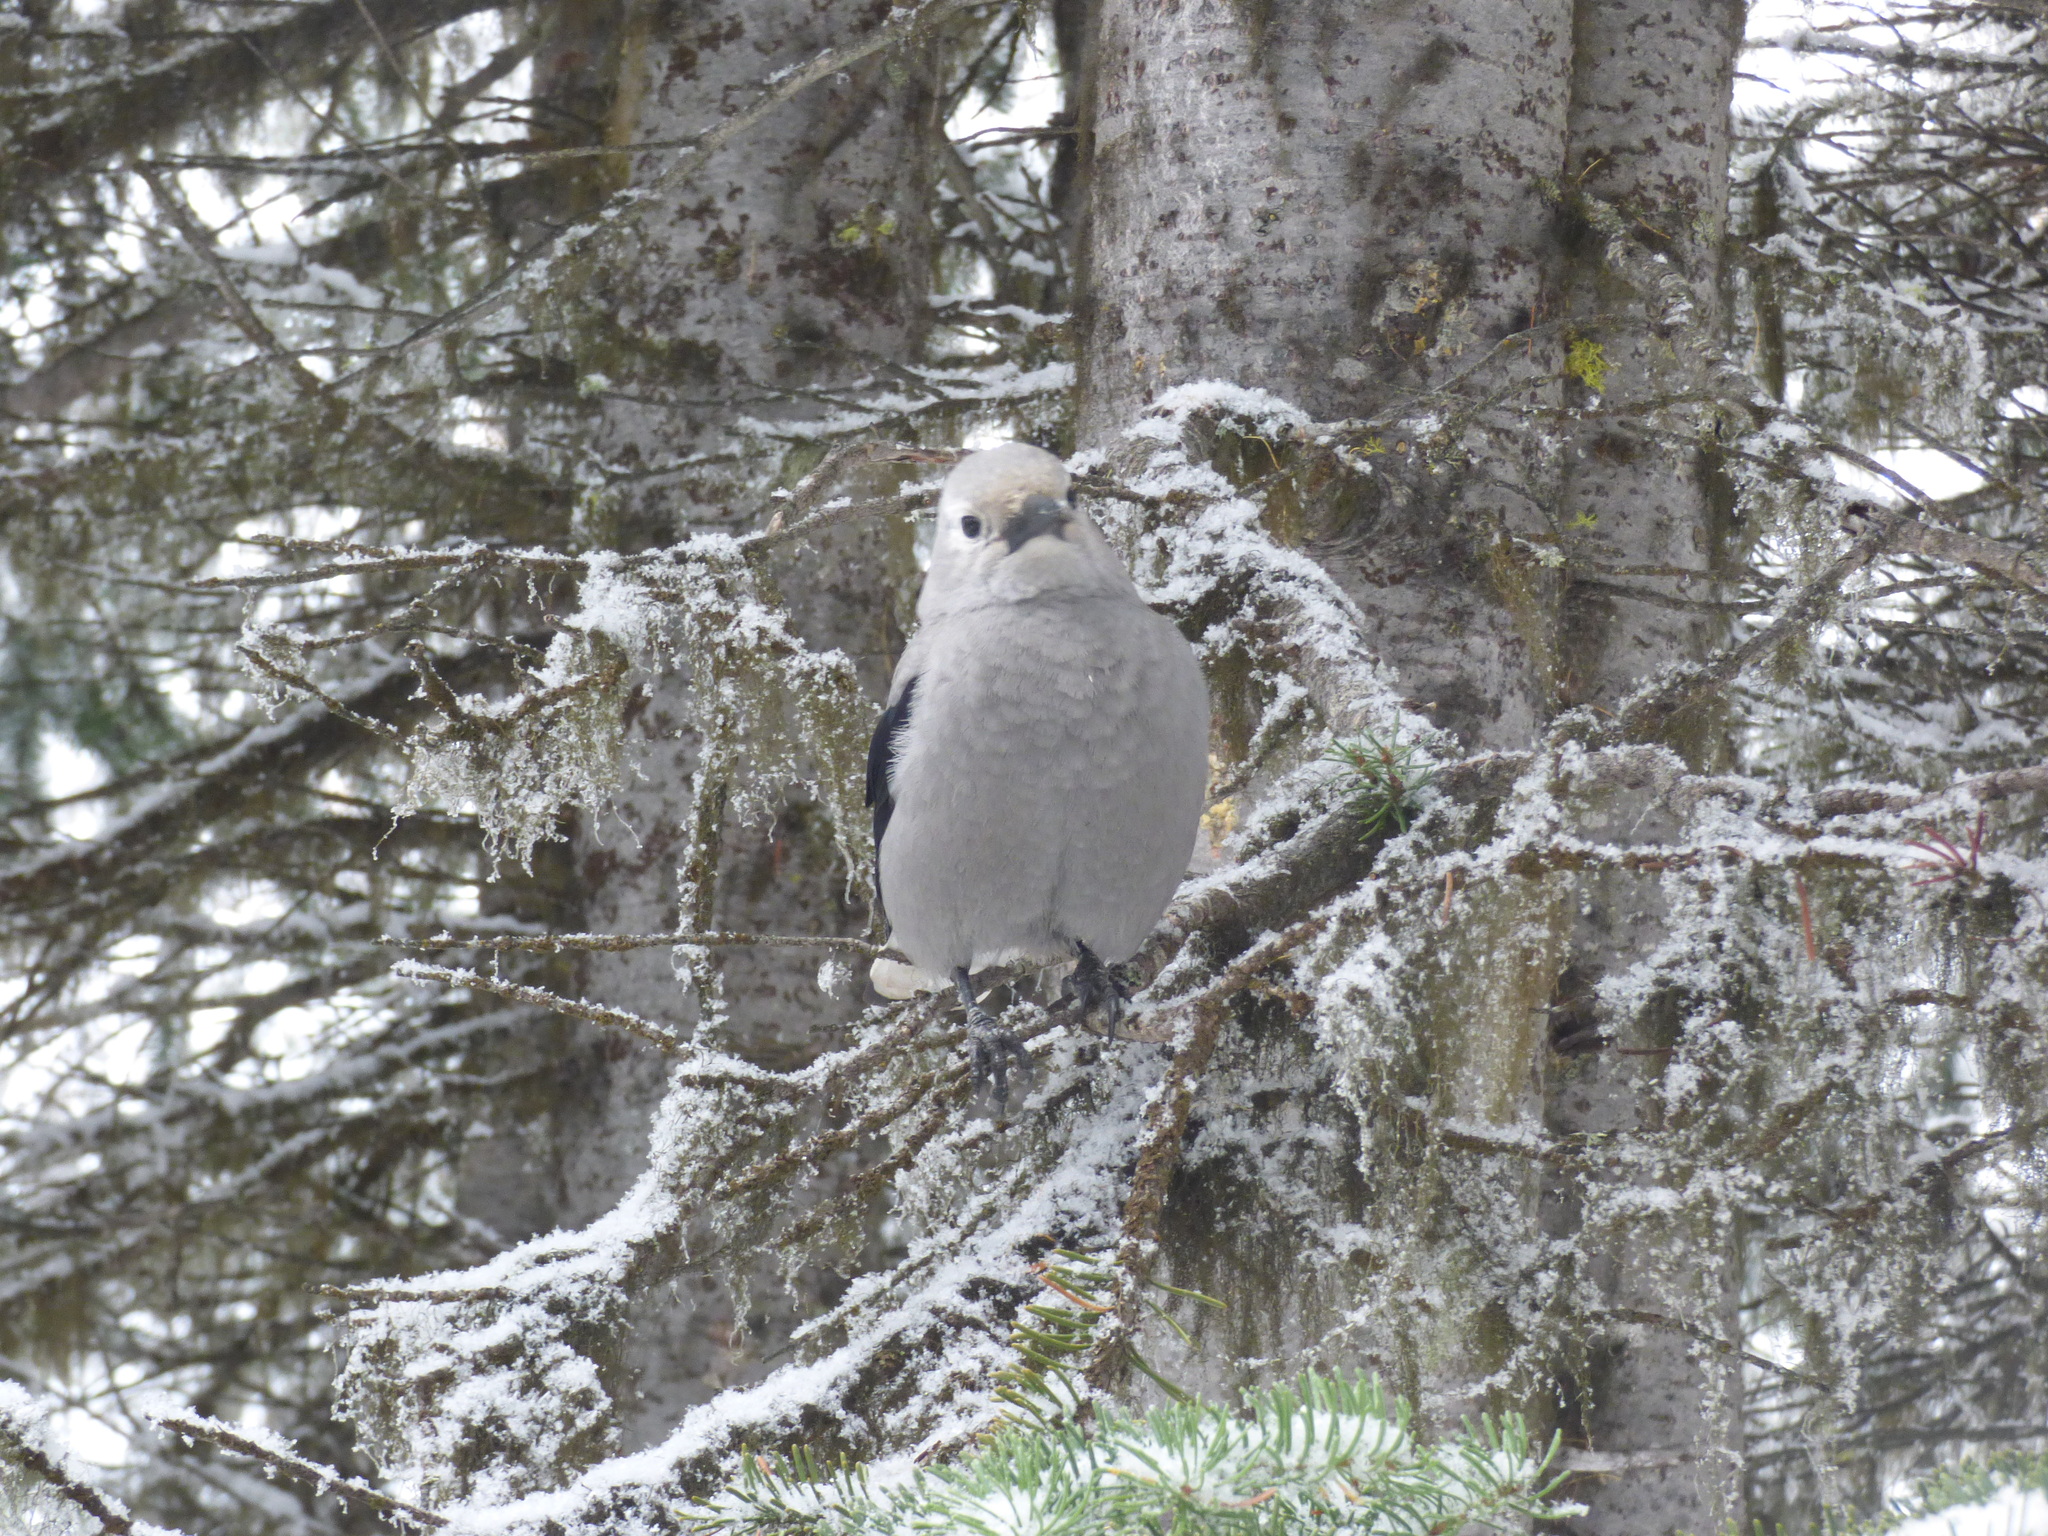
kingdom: Animalia
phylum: Chordata
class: Aves
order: Passeriformes
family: Corvidae
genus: Nucifraga
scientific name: Nucifraga columbiana
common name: Clark's nutcracker
